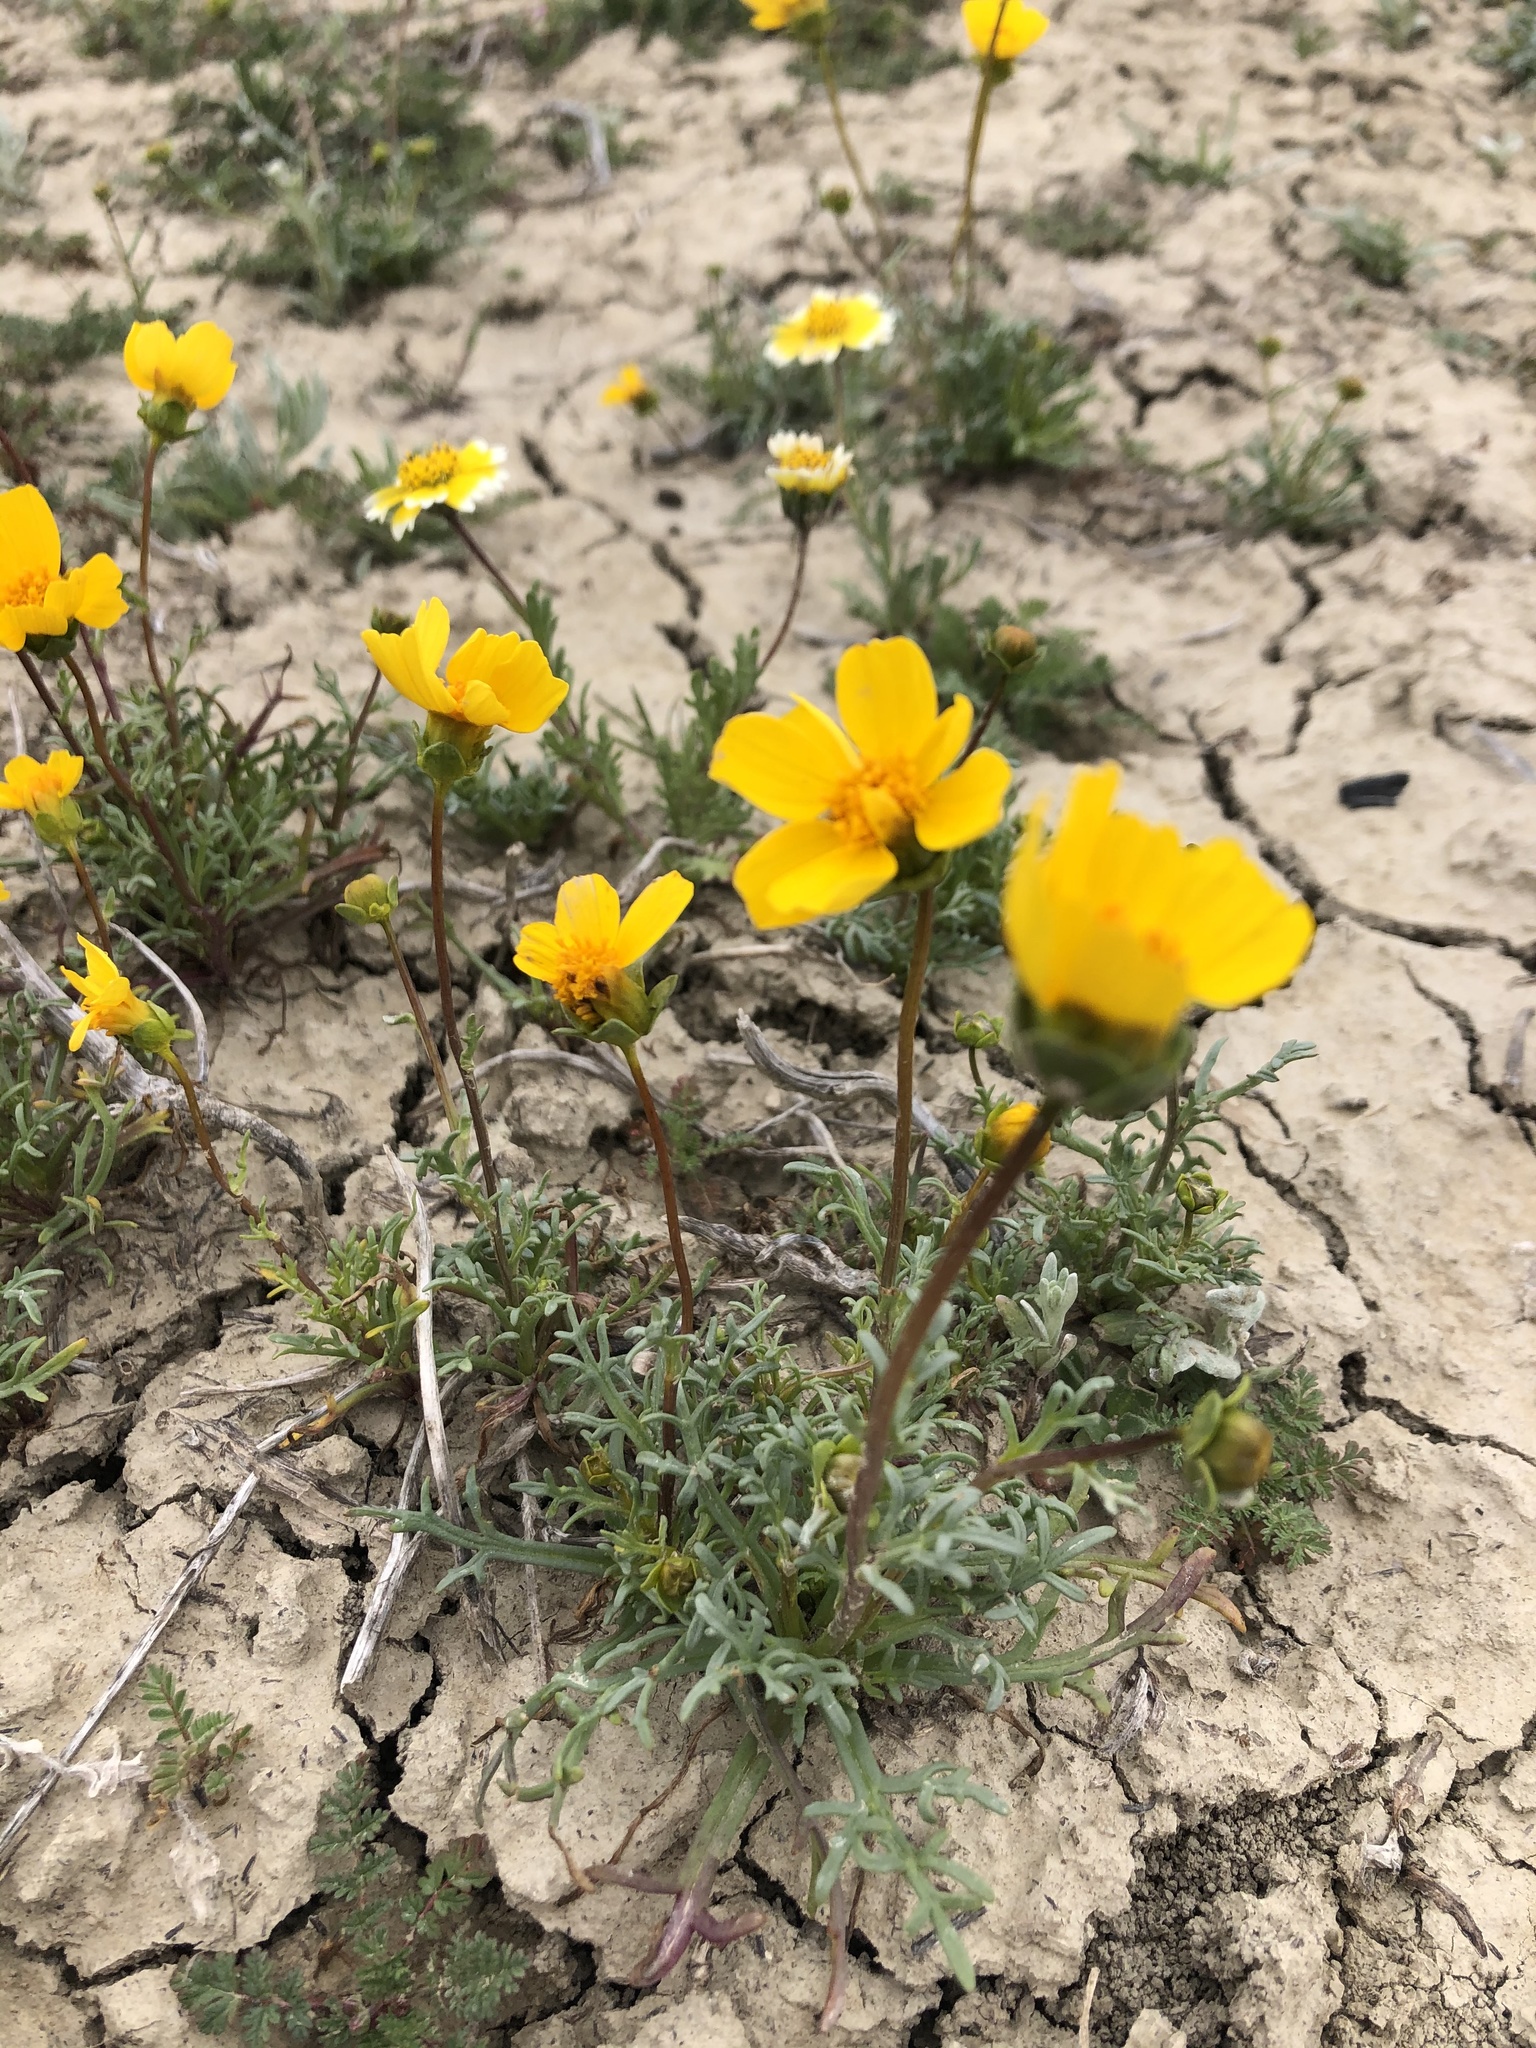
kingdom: Plantae
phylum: Tracheophyta
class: Magnoliopsida
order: Asterales
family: Asteraceae
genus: Coreopsis
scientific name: Coreopsis calliopsidea
